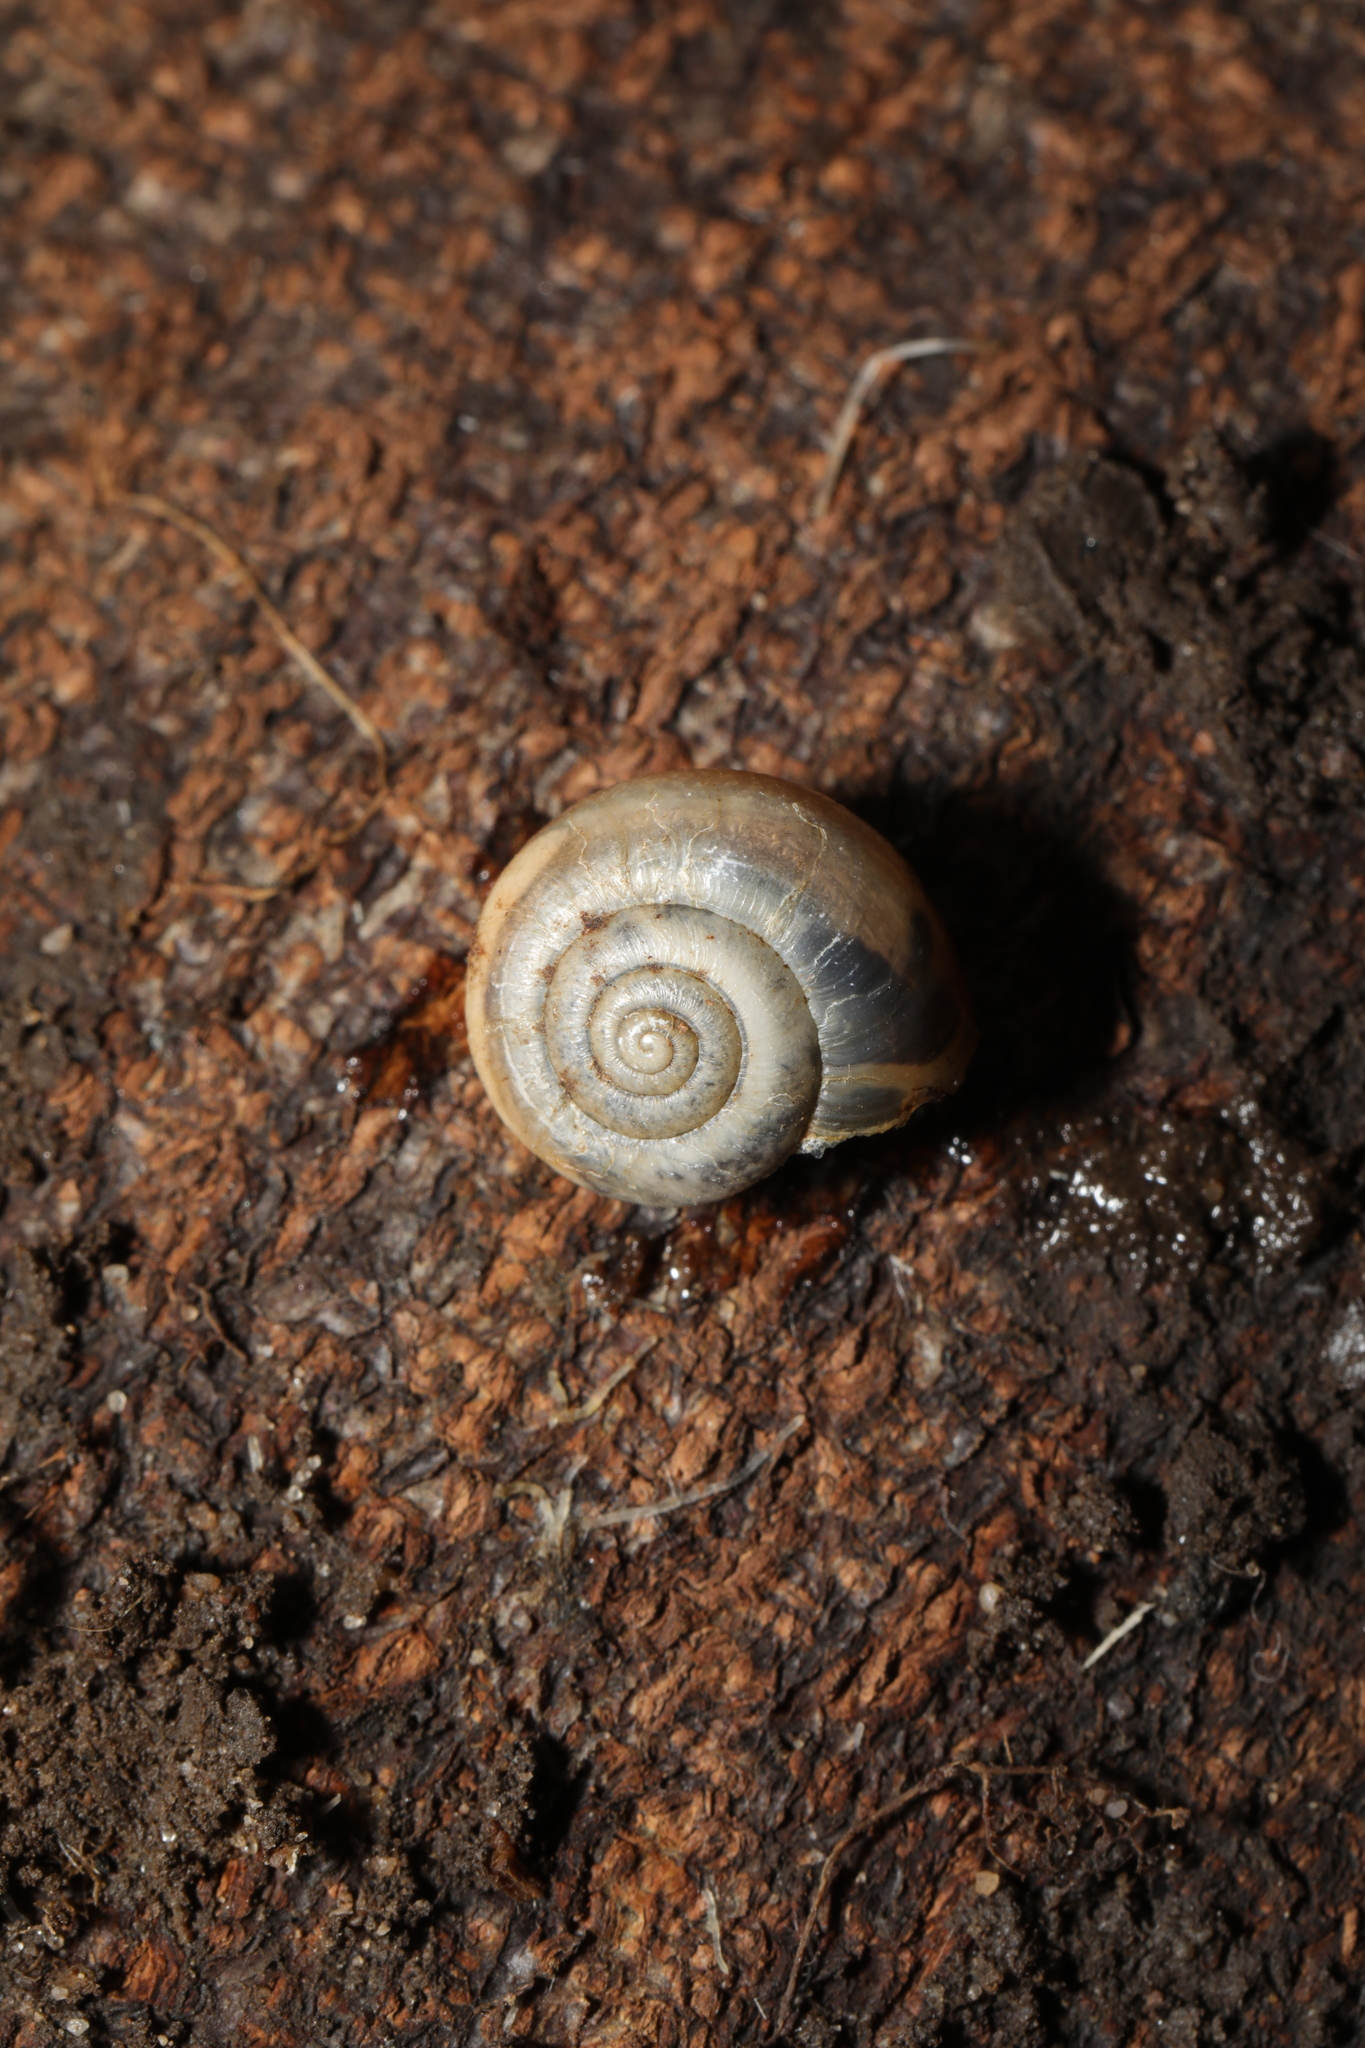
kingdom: Animalia
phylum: Mollusca
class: Gastropoda
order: Stylommatophora
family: Hygromiidae
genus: Monacha
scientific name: Monacha cantiana
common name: Kentish snail
